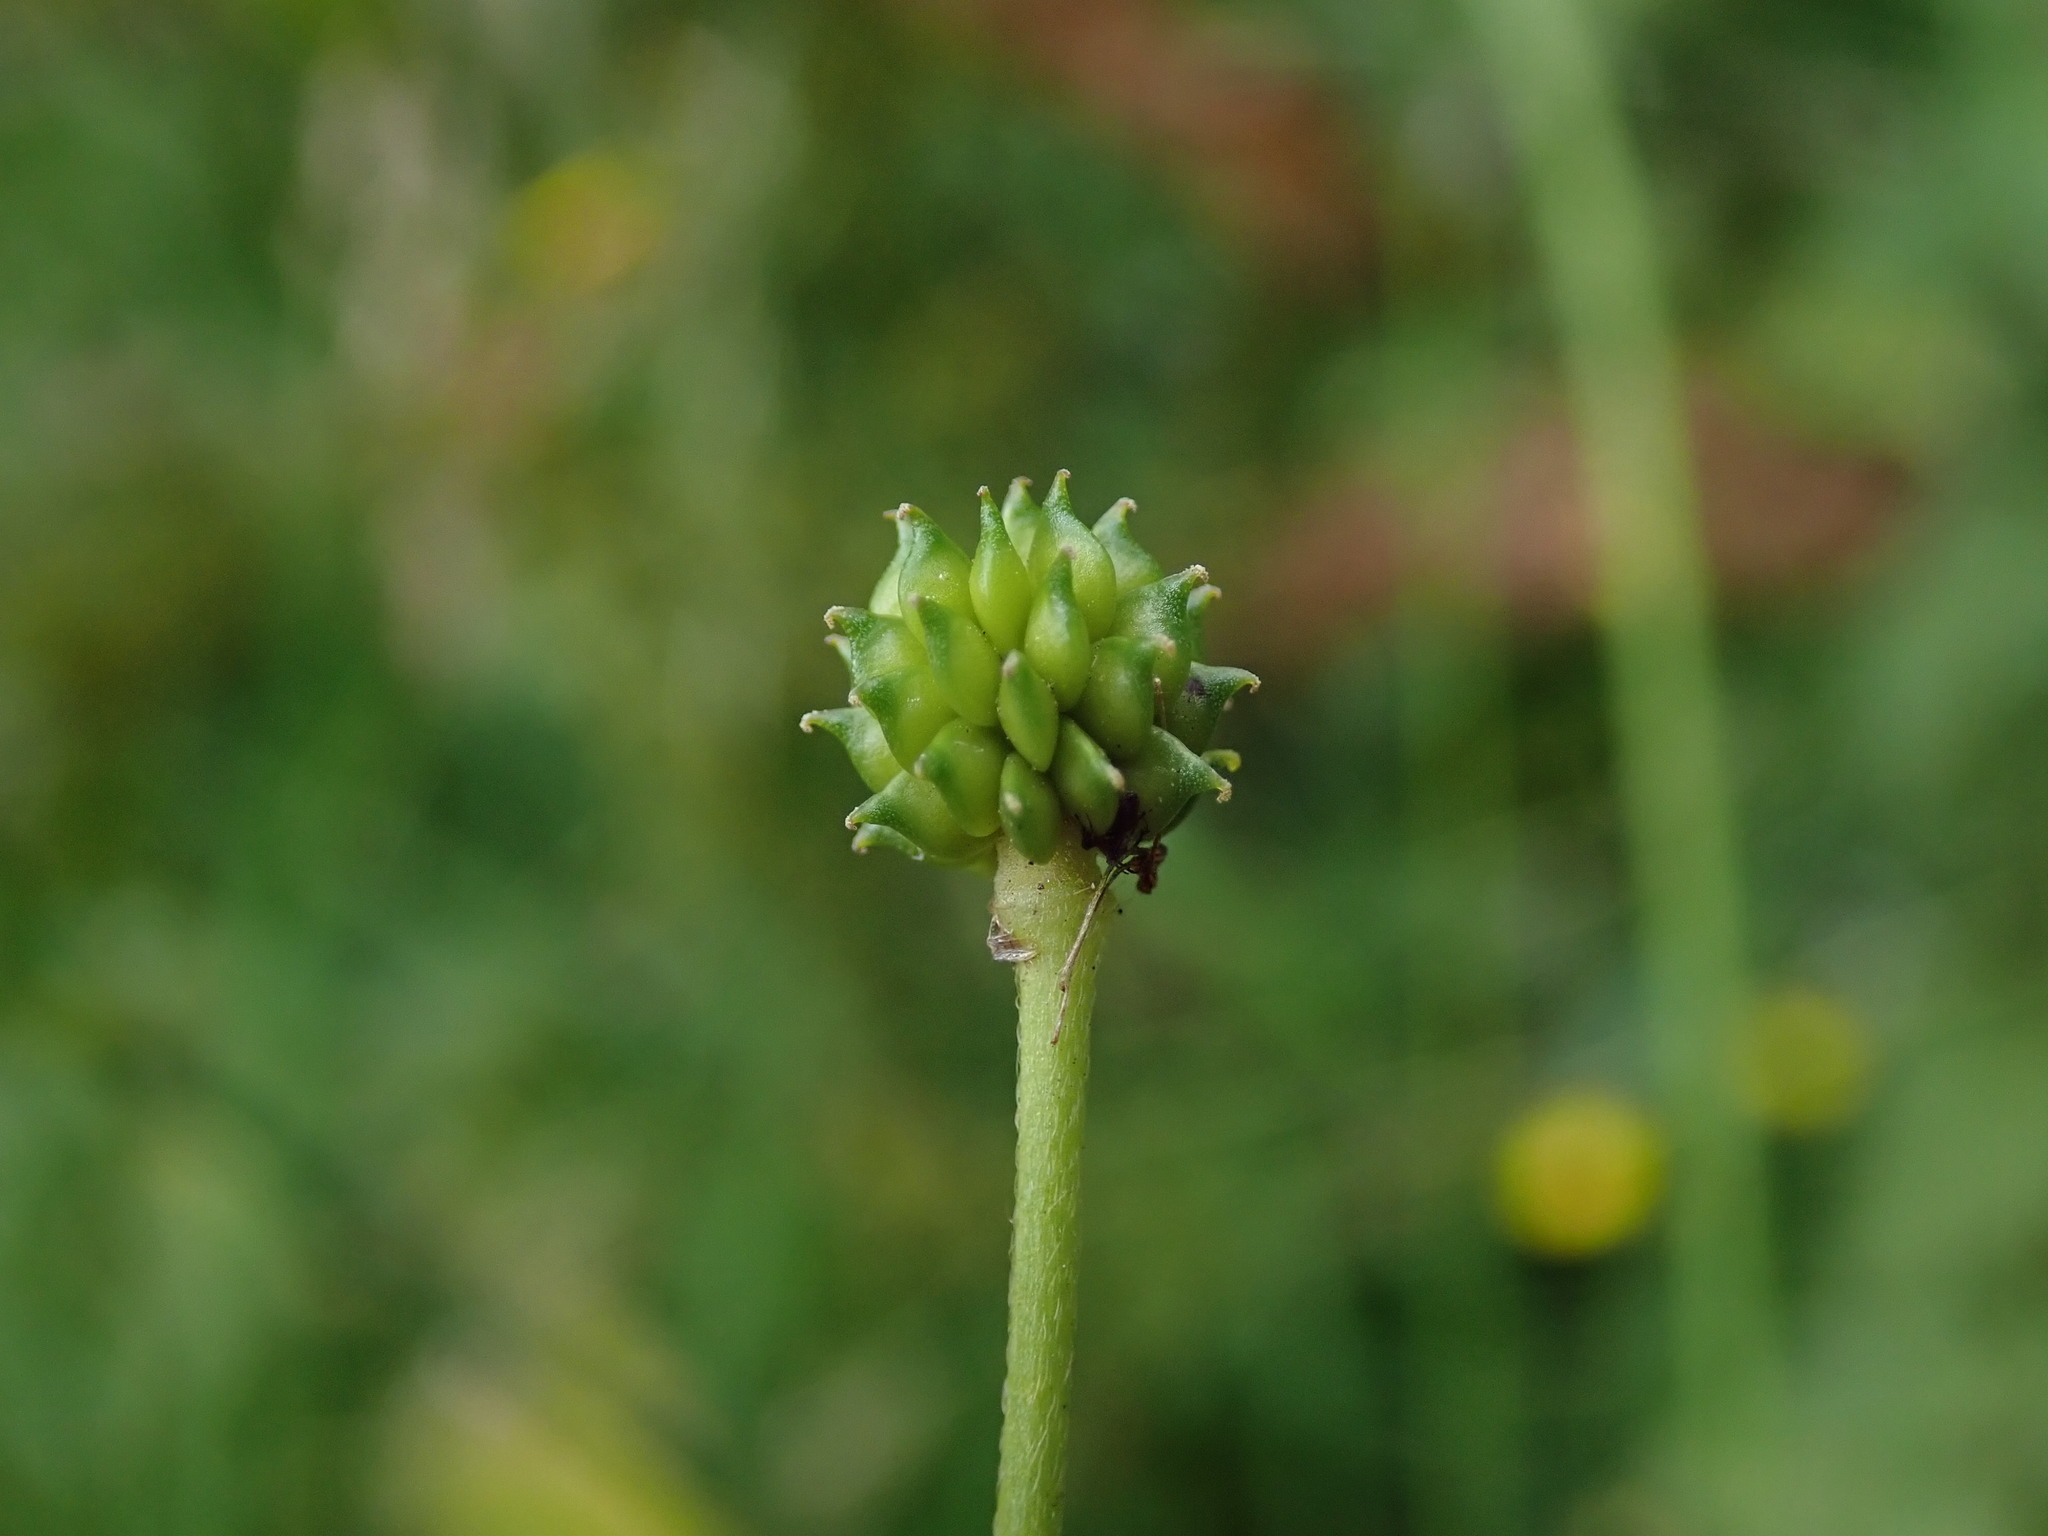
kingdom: Plantae
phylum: Tracheophyta
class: Magnoliopsida
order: Ranunculales
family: Ranunculaceae
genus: Ranunculus
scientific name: Ranunculus acris
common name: Meadow buttercup
